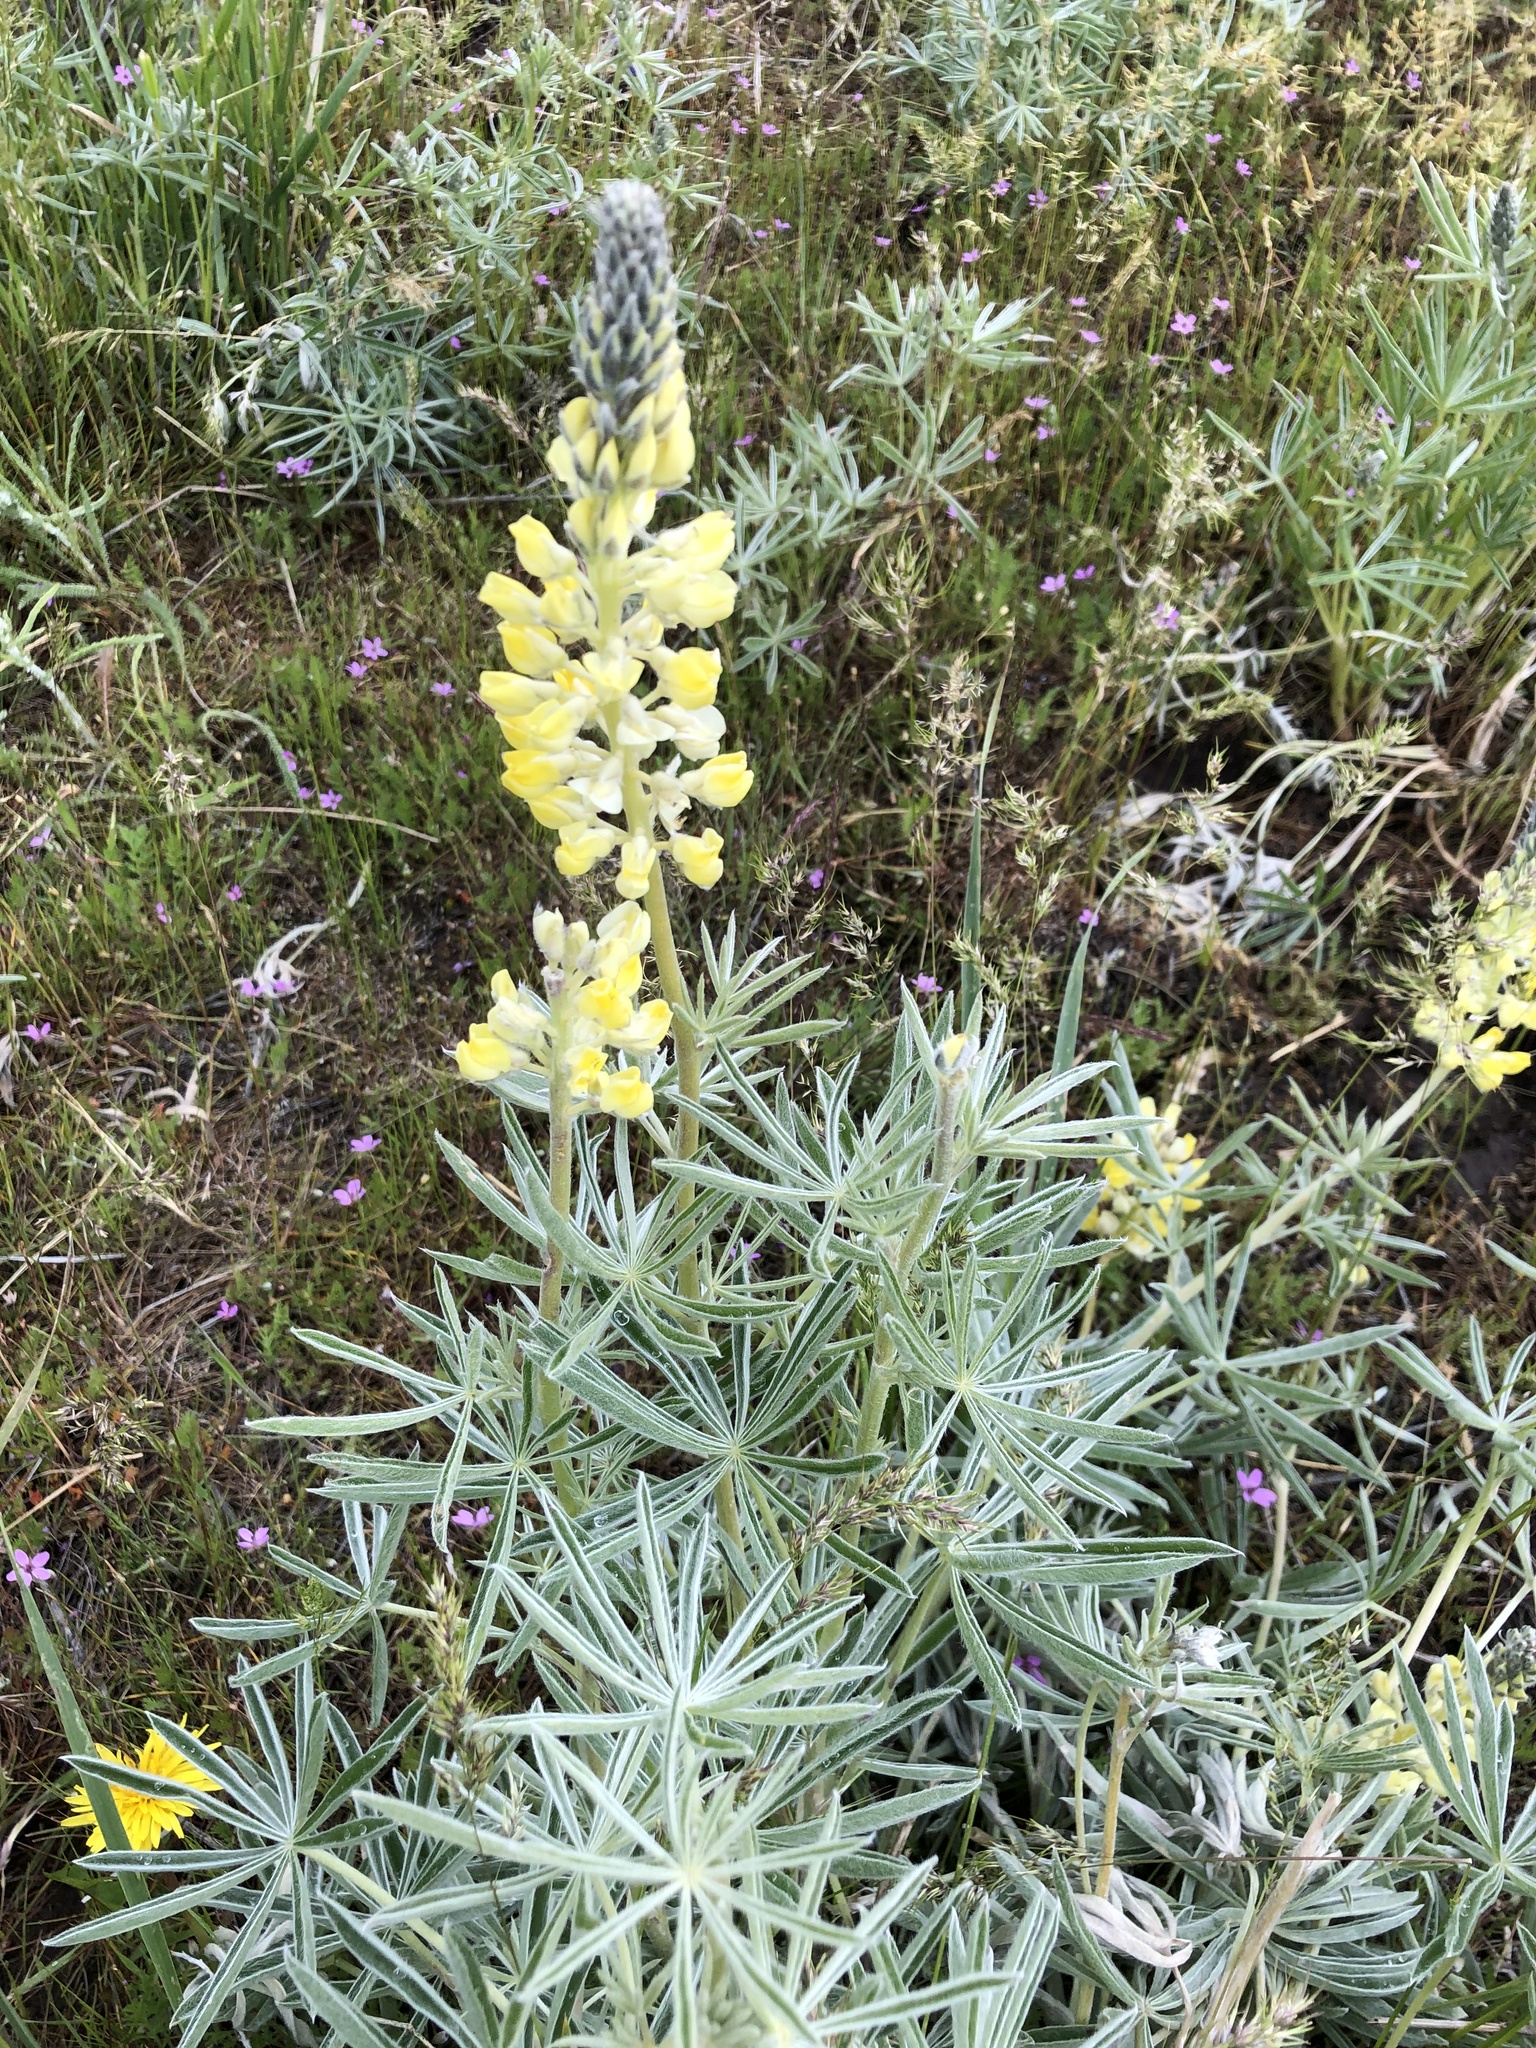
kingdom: Plantae
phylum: Tracheophyta
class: Magnoliopsida
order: Fabales
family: Fabaceae
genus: Lupinus
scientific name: Lupinus sulphureus
